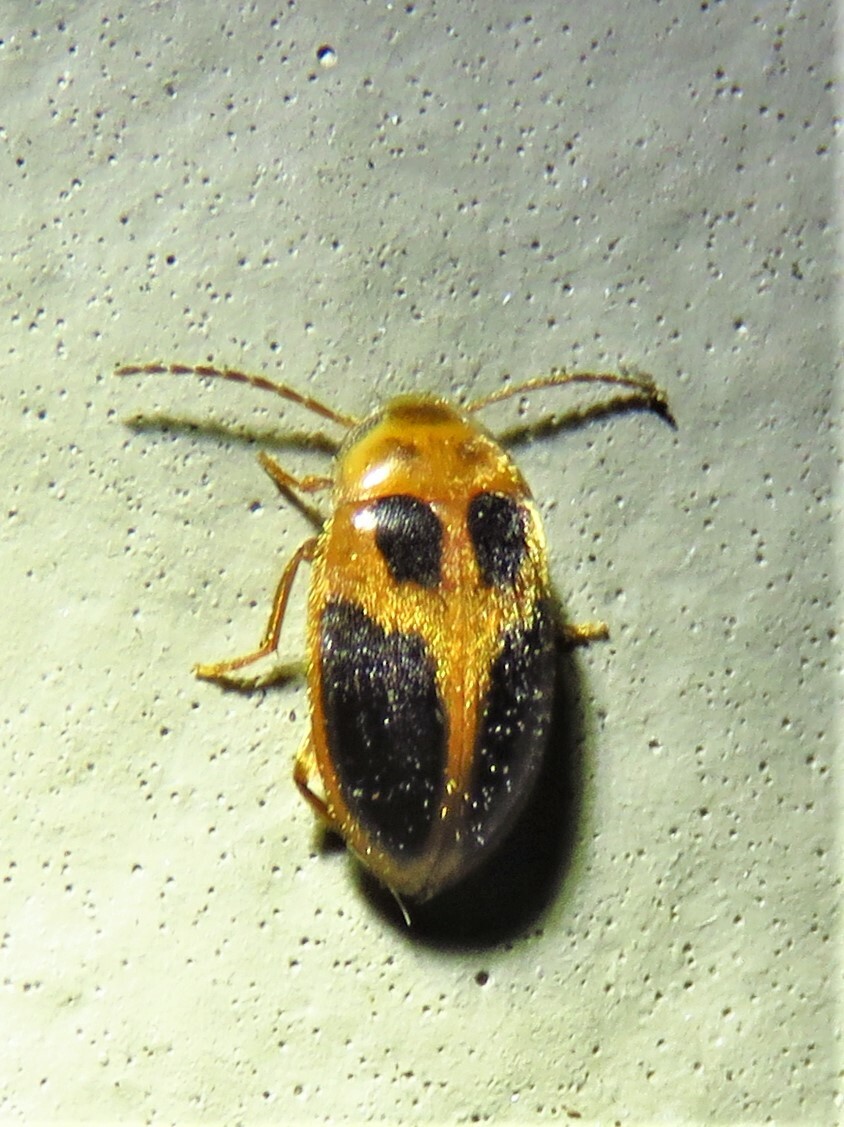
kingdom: Animalia
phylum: Arthropoda
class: Insecta
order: Coleoptera
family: Scirtidae
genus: Sacodes
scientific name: Sacodes pulchella
